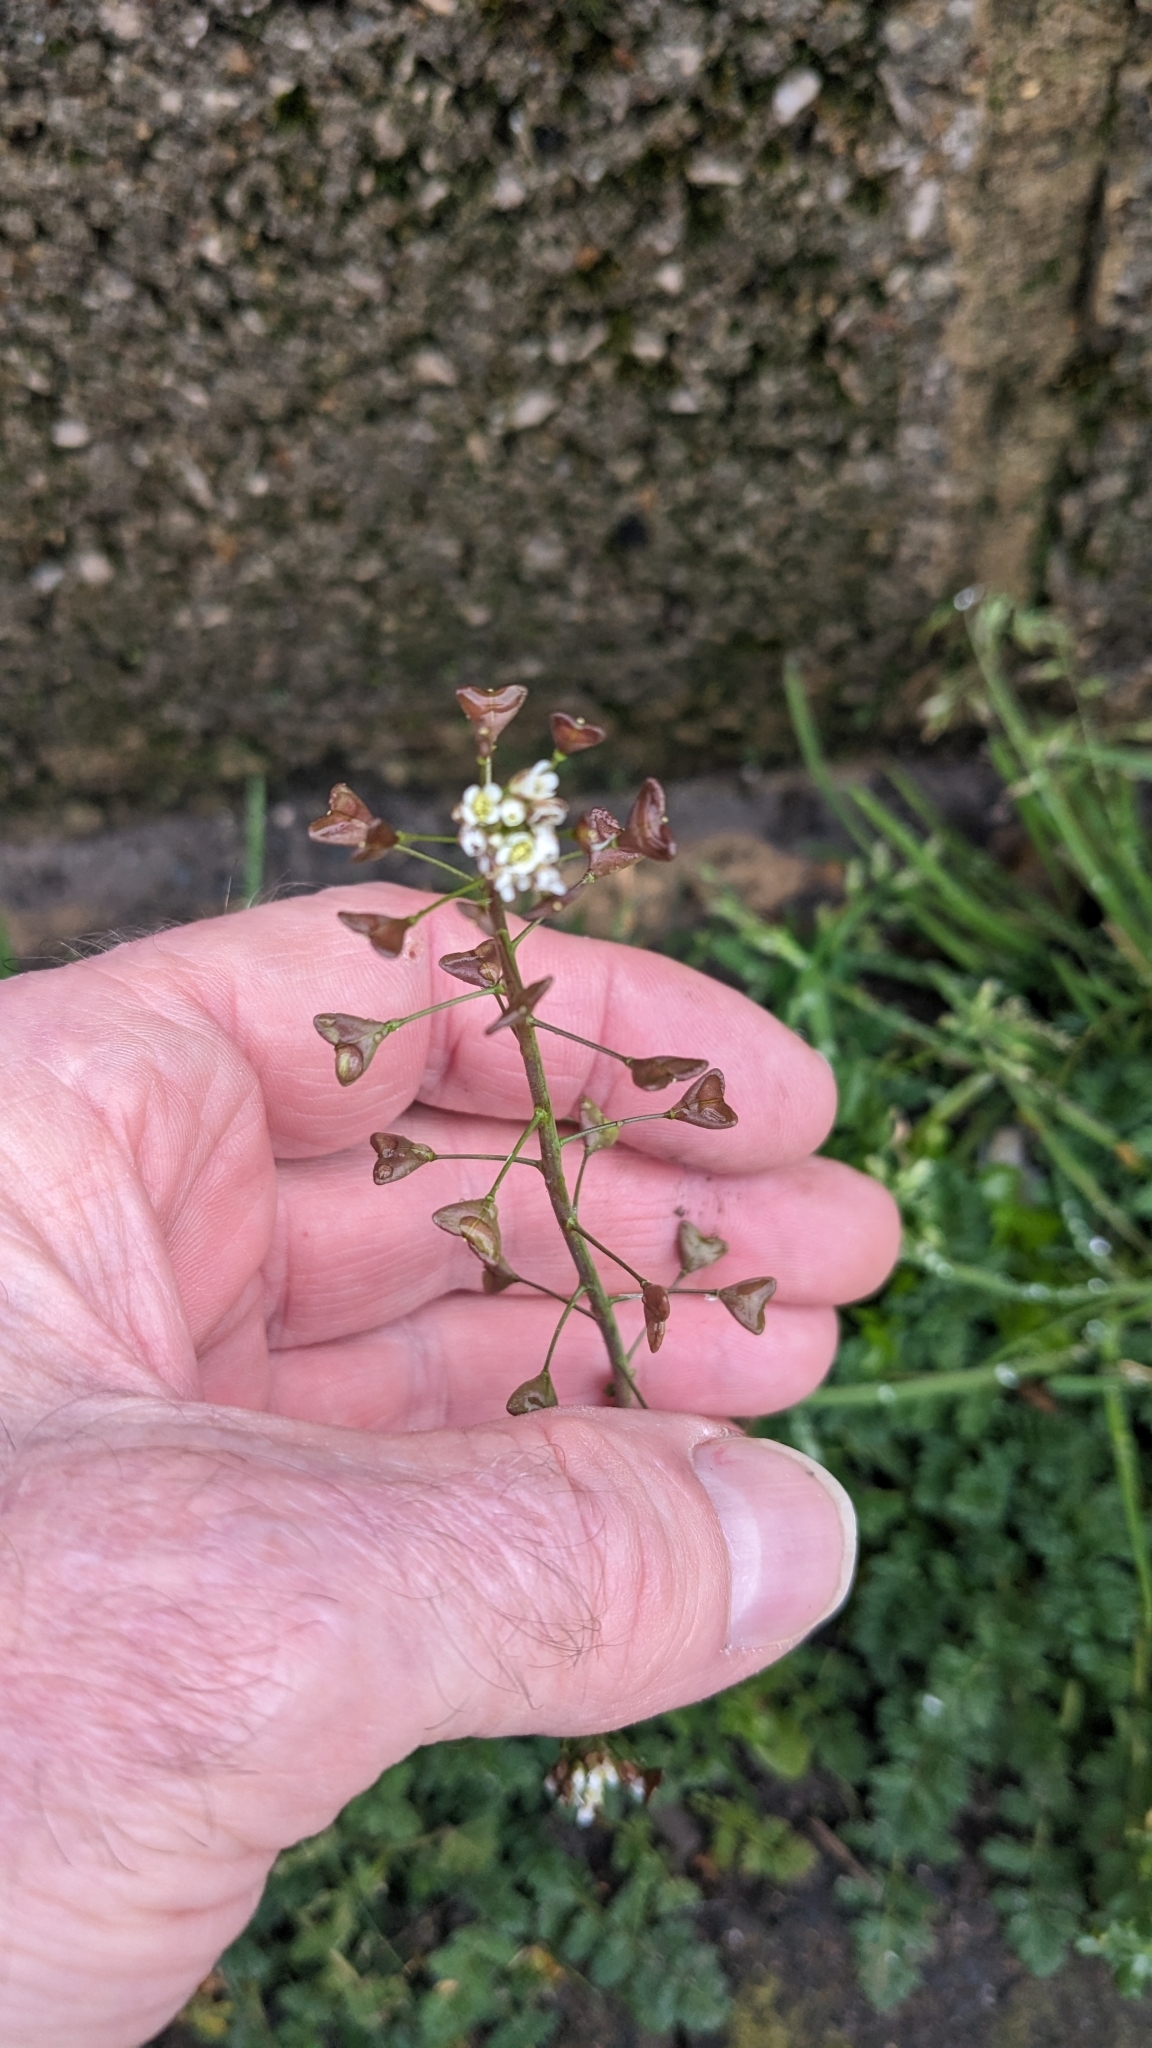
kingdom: Plantae
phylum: Tracheophyta
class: Magnoliopsida
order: Brassicales
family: Brassicaceae
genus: Capsella
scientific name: Capsella bursa-pastoris
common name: Shepherd's purse
